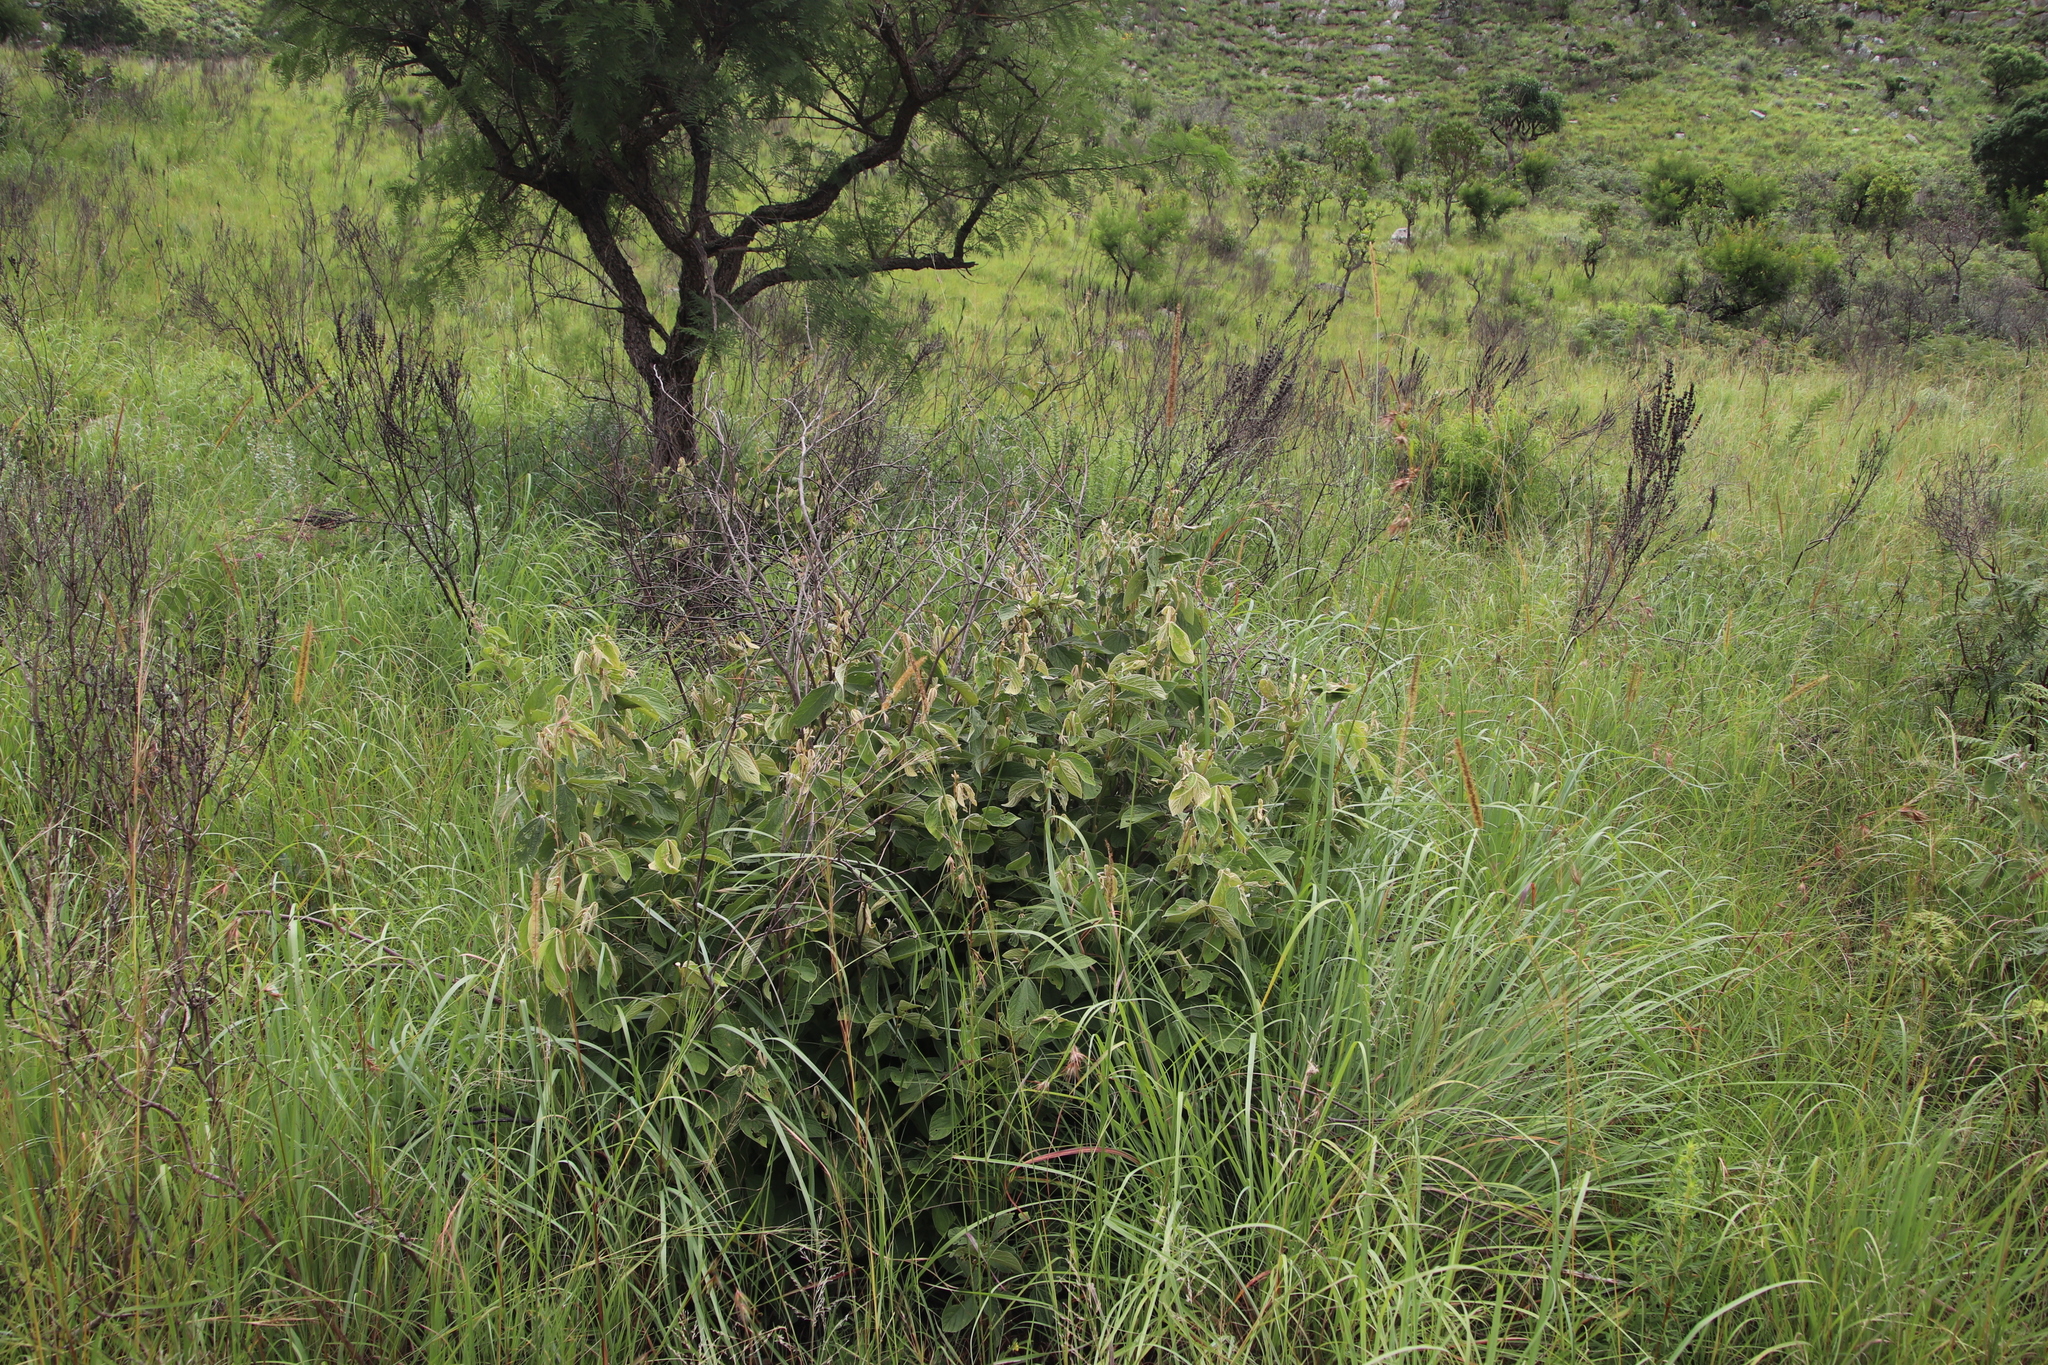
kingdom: Plantae
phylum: Tracheophyta
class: Magnoliopsida
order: Fabales
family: Fabaceae
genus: Flemingia
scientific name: Flemingia grahamiana
